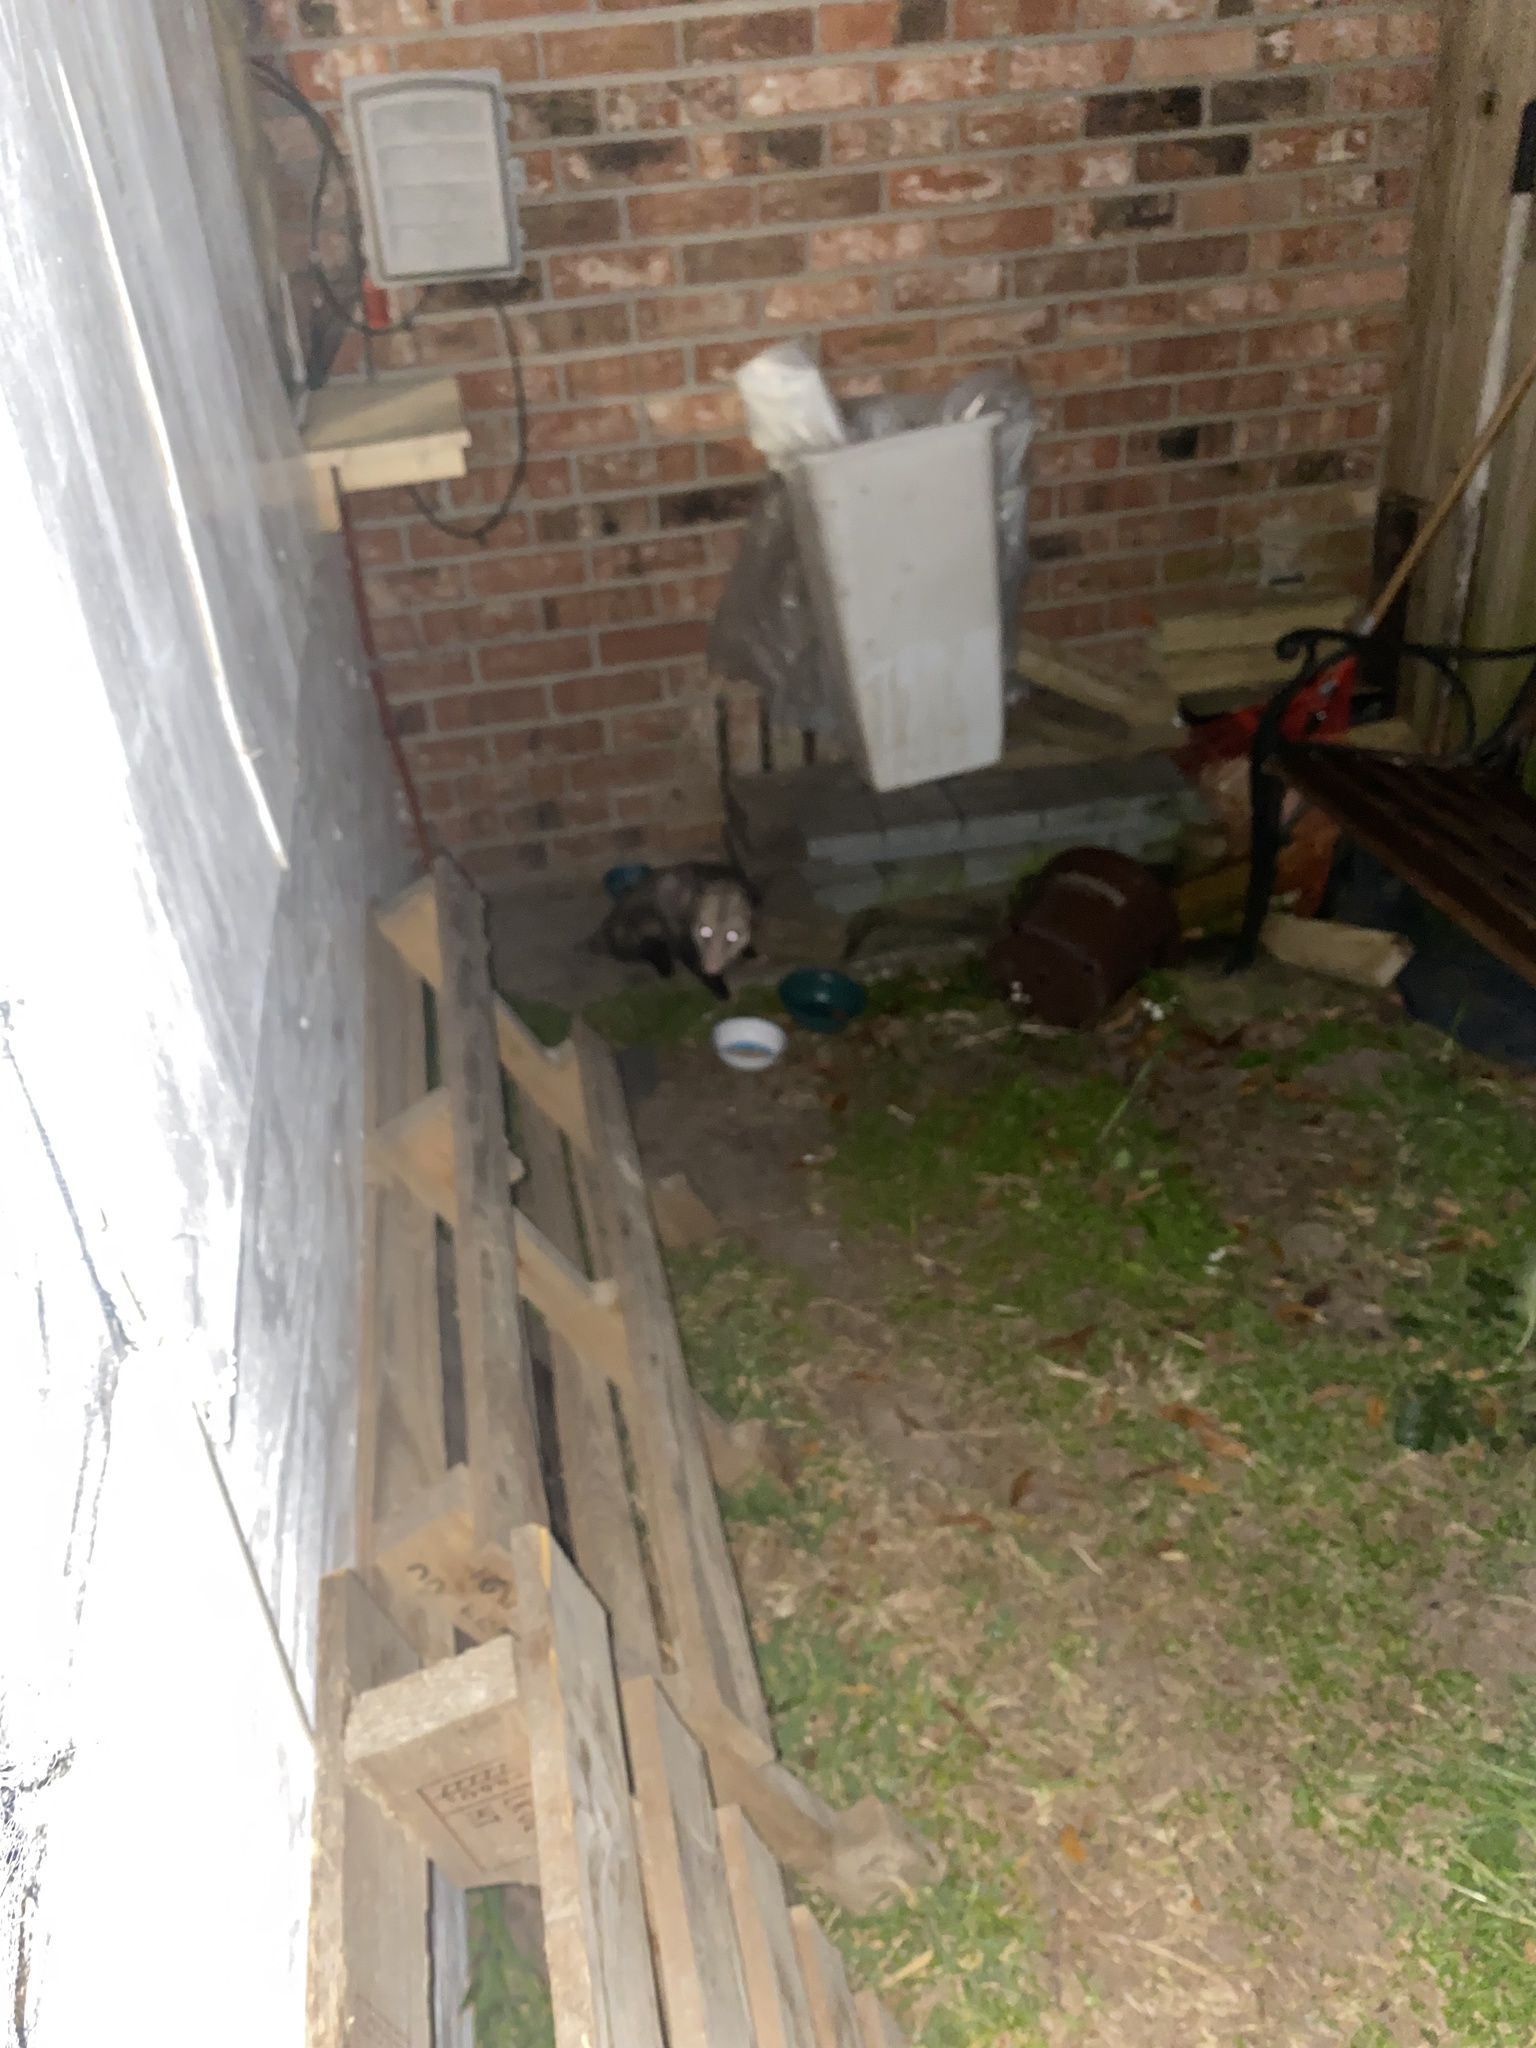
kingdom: Animalia
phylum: Chordata
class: Mammalia
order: Didelphimorphia
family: Didelphidae
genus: Didelphis
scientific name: Didelphis virginiana
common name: Virginia opossum
